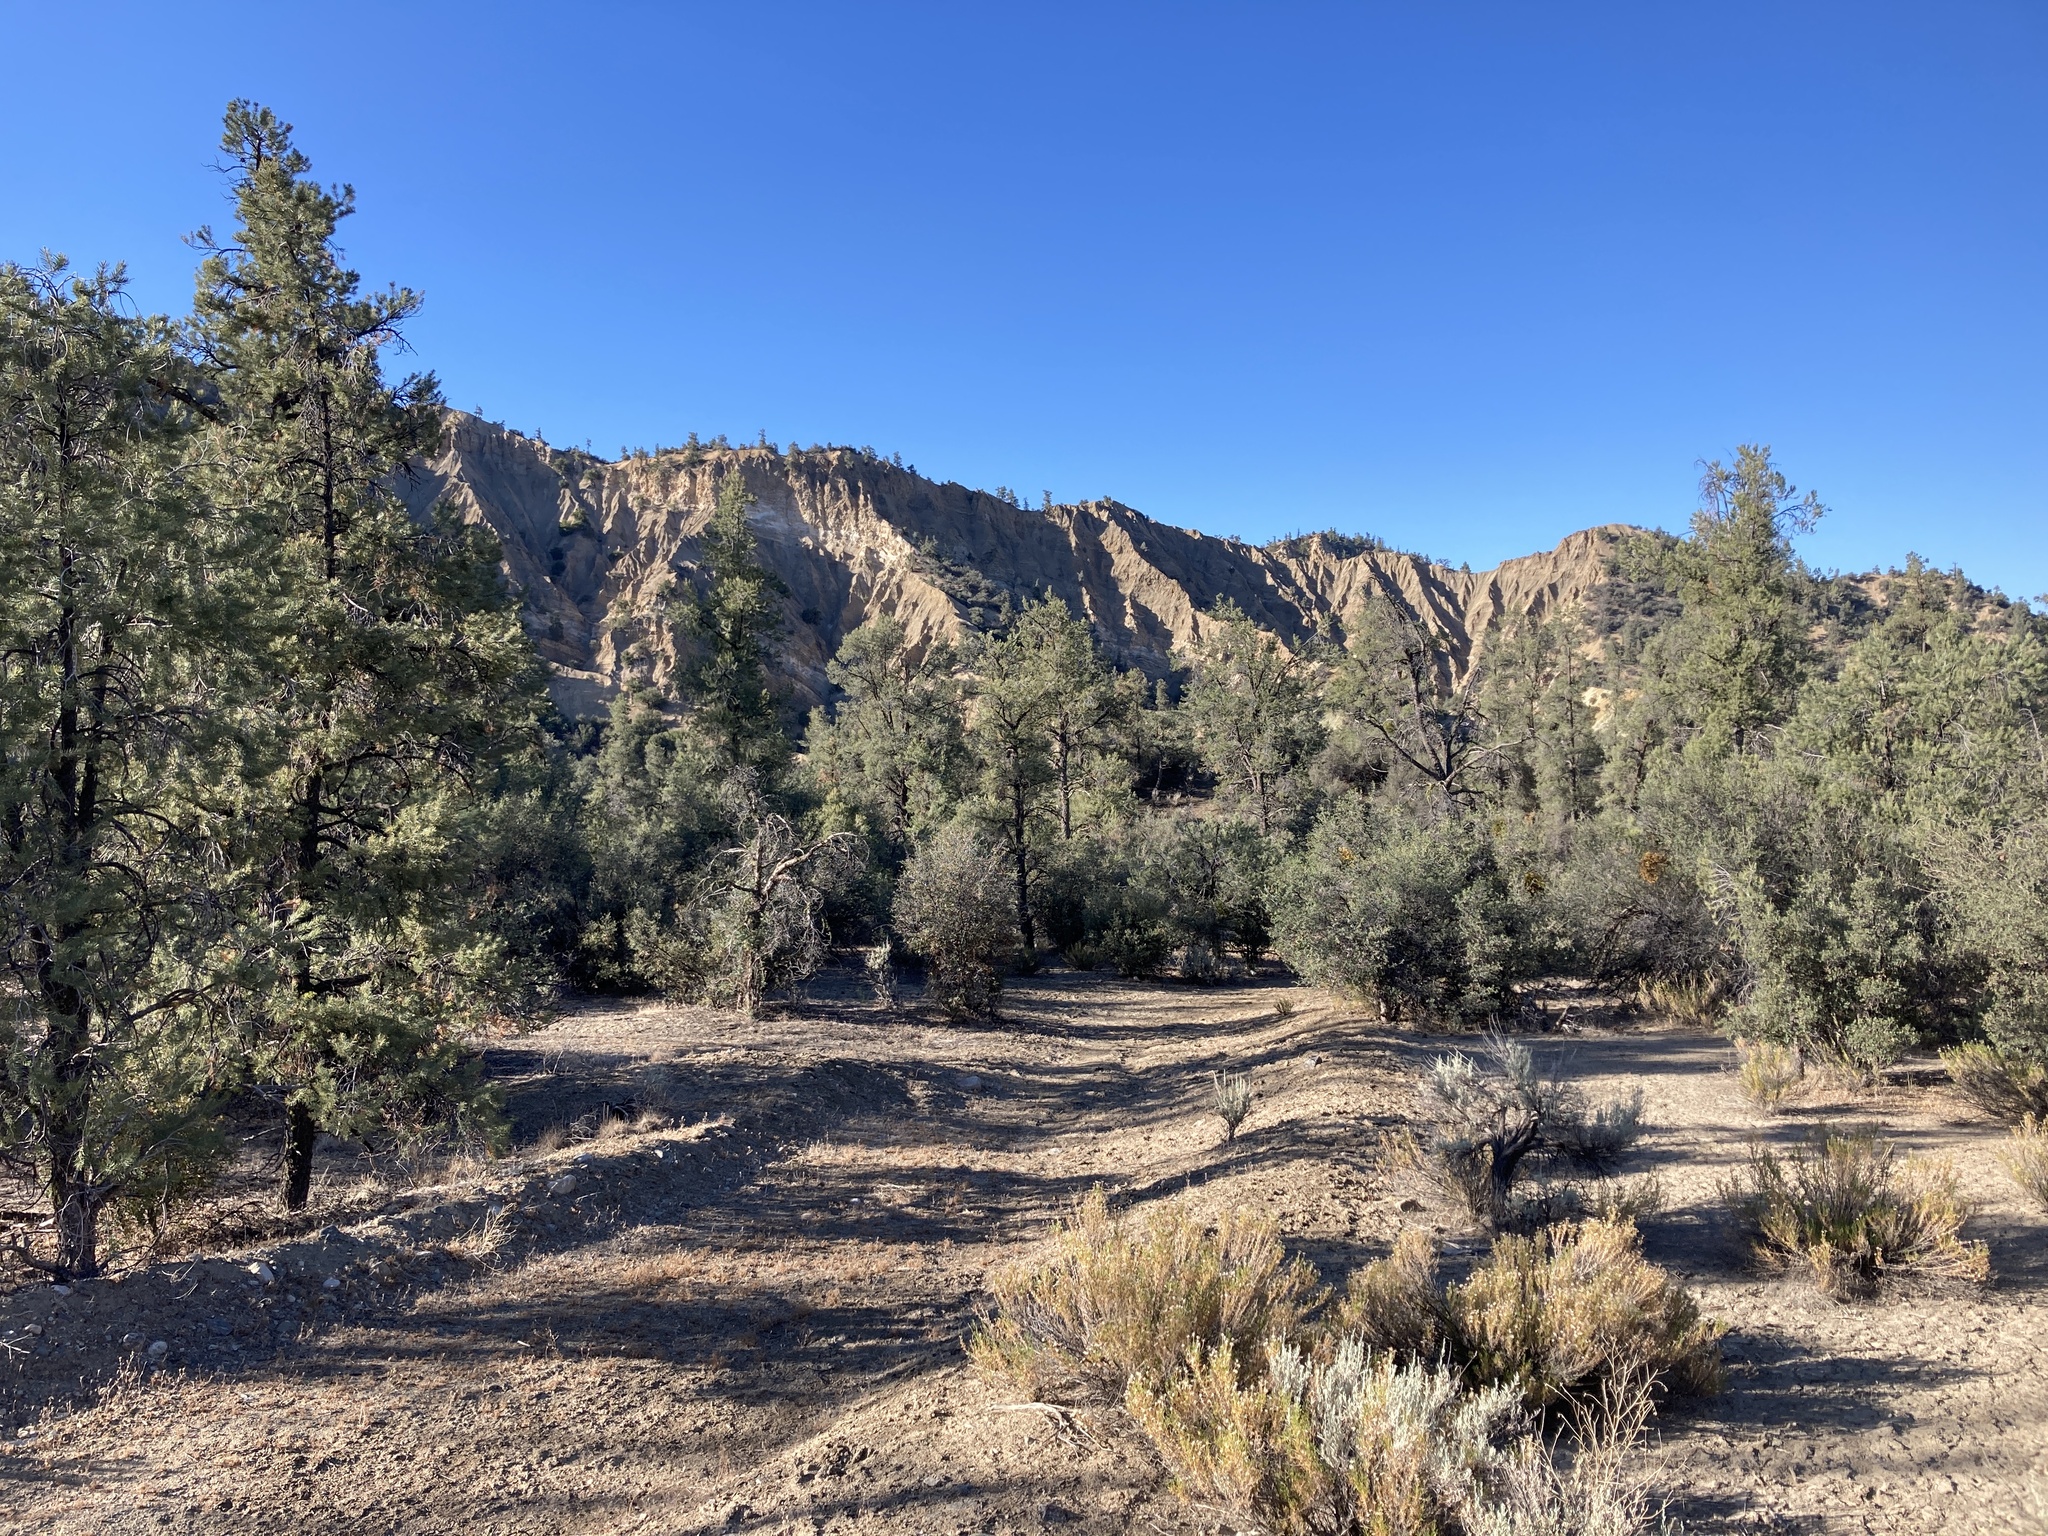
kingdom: Plantae
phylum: Tracheophyta
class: Pinopsida
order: Pinales
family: Pinaceae
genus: Pinus
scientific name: Pinus monophylla
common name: One-leaved nut pine
